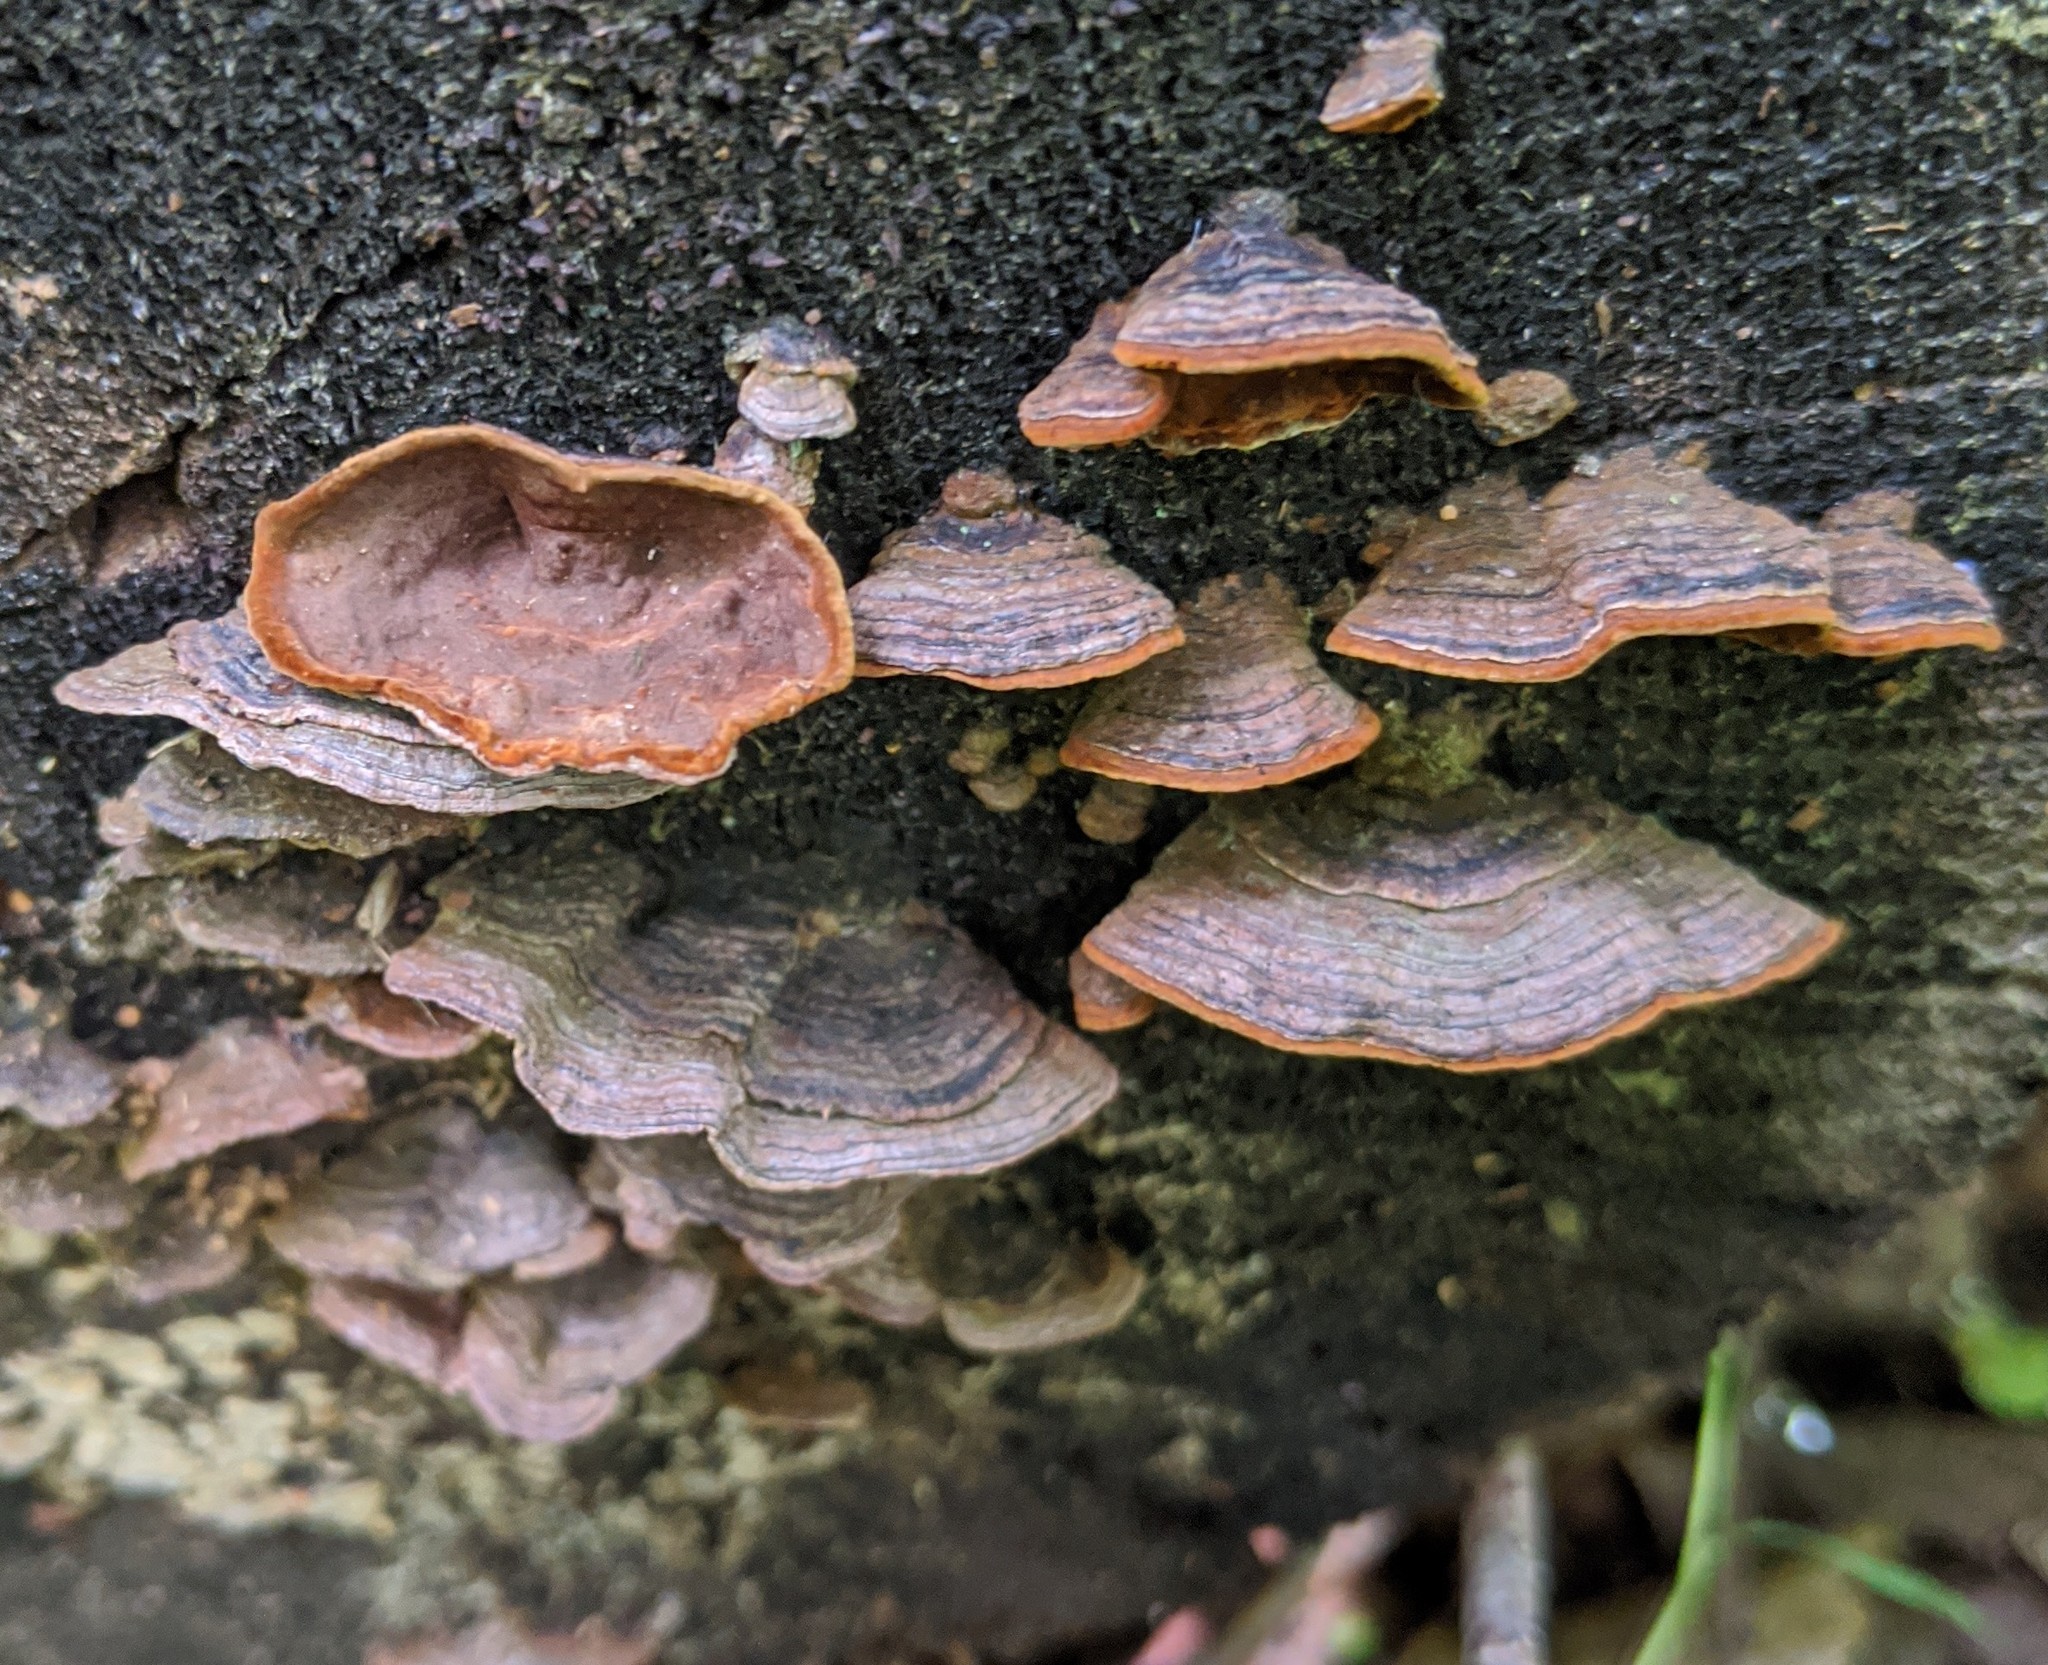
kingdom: Fungi
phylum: Basidiomycota
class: Agaricomycetes
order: Hymenochaetales
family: Hymenochaetaceae
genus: Hymenochaete
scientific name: Hymenochaete rubiginosa
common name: Oak curtain crust
